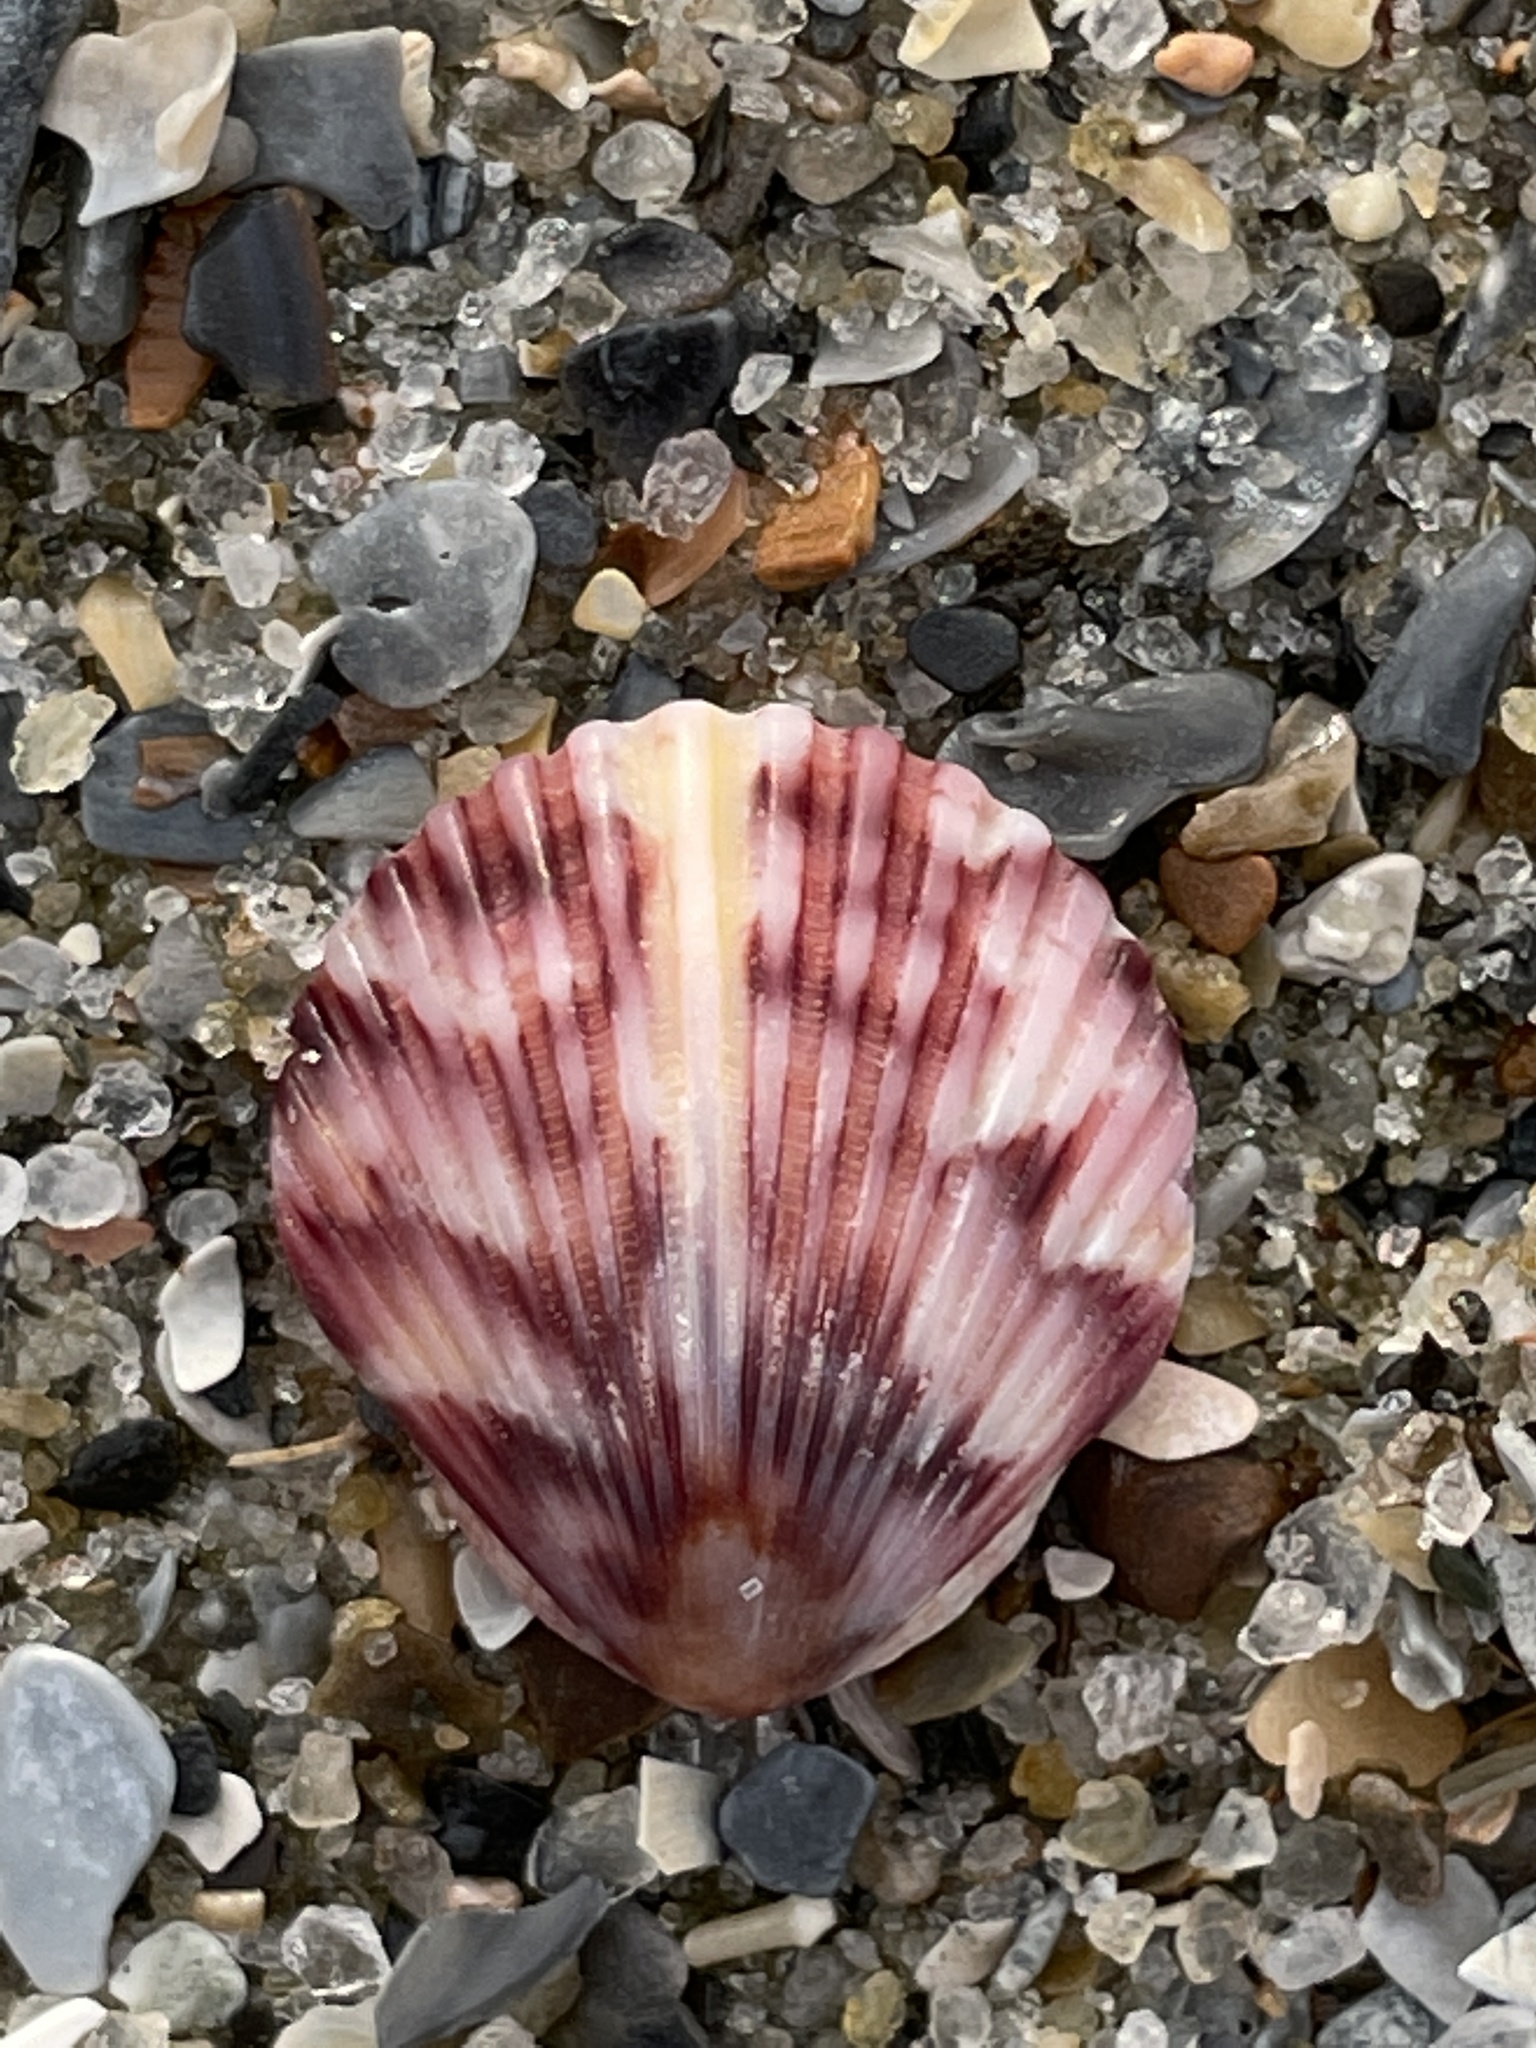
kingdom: Animalia
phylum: Mollusca
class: Bivalvia
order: Pectinida
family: Pectinidae
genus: Argopecten
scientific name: Argopecten gibbus
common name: Atlantic calico scallop
